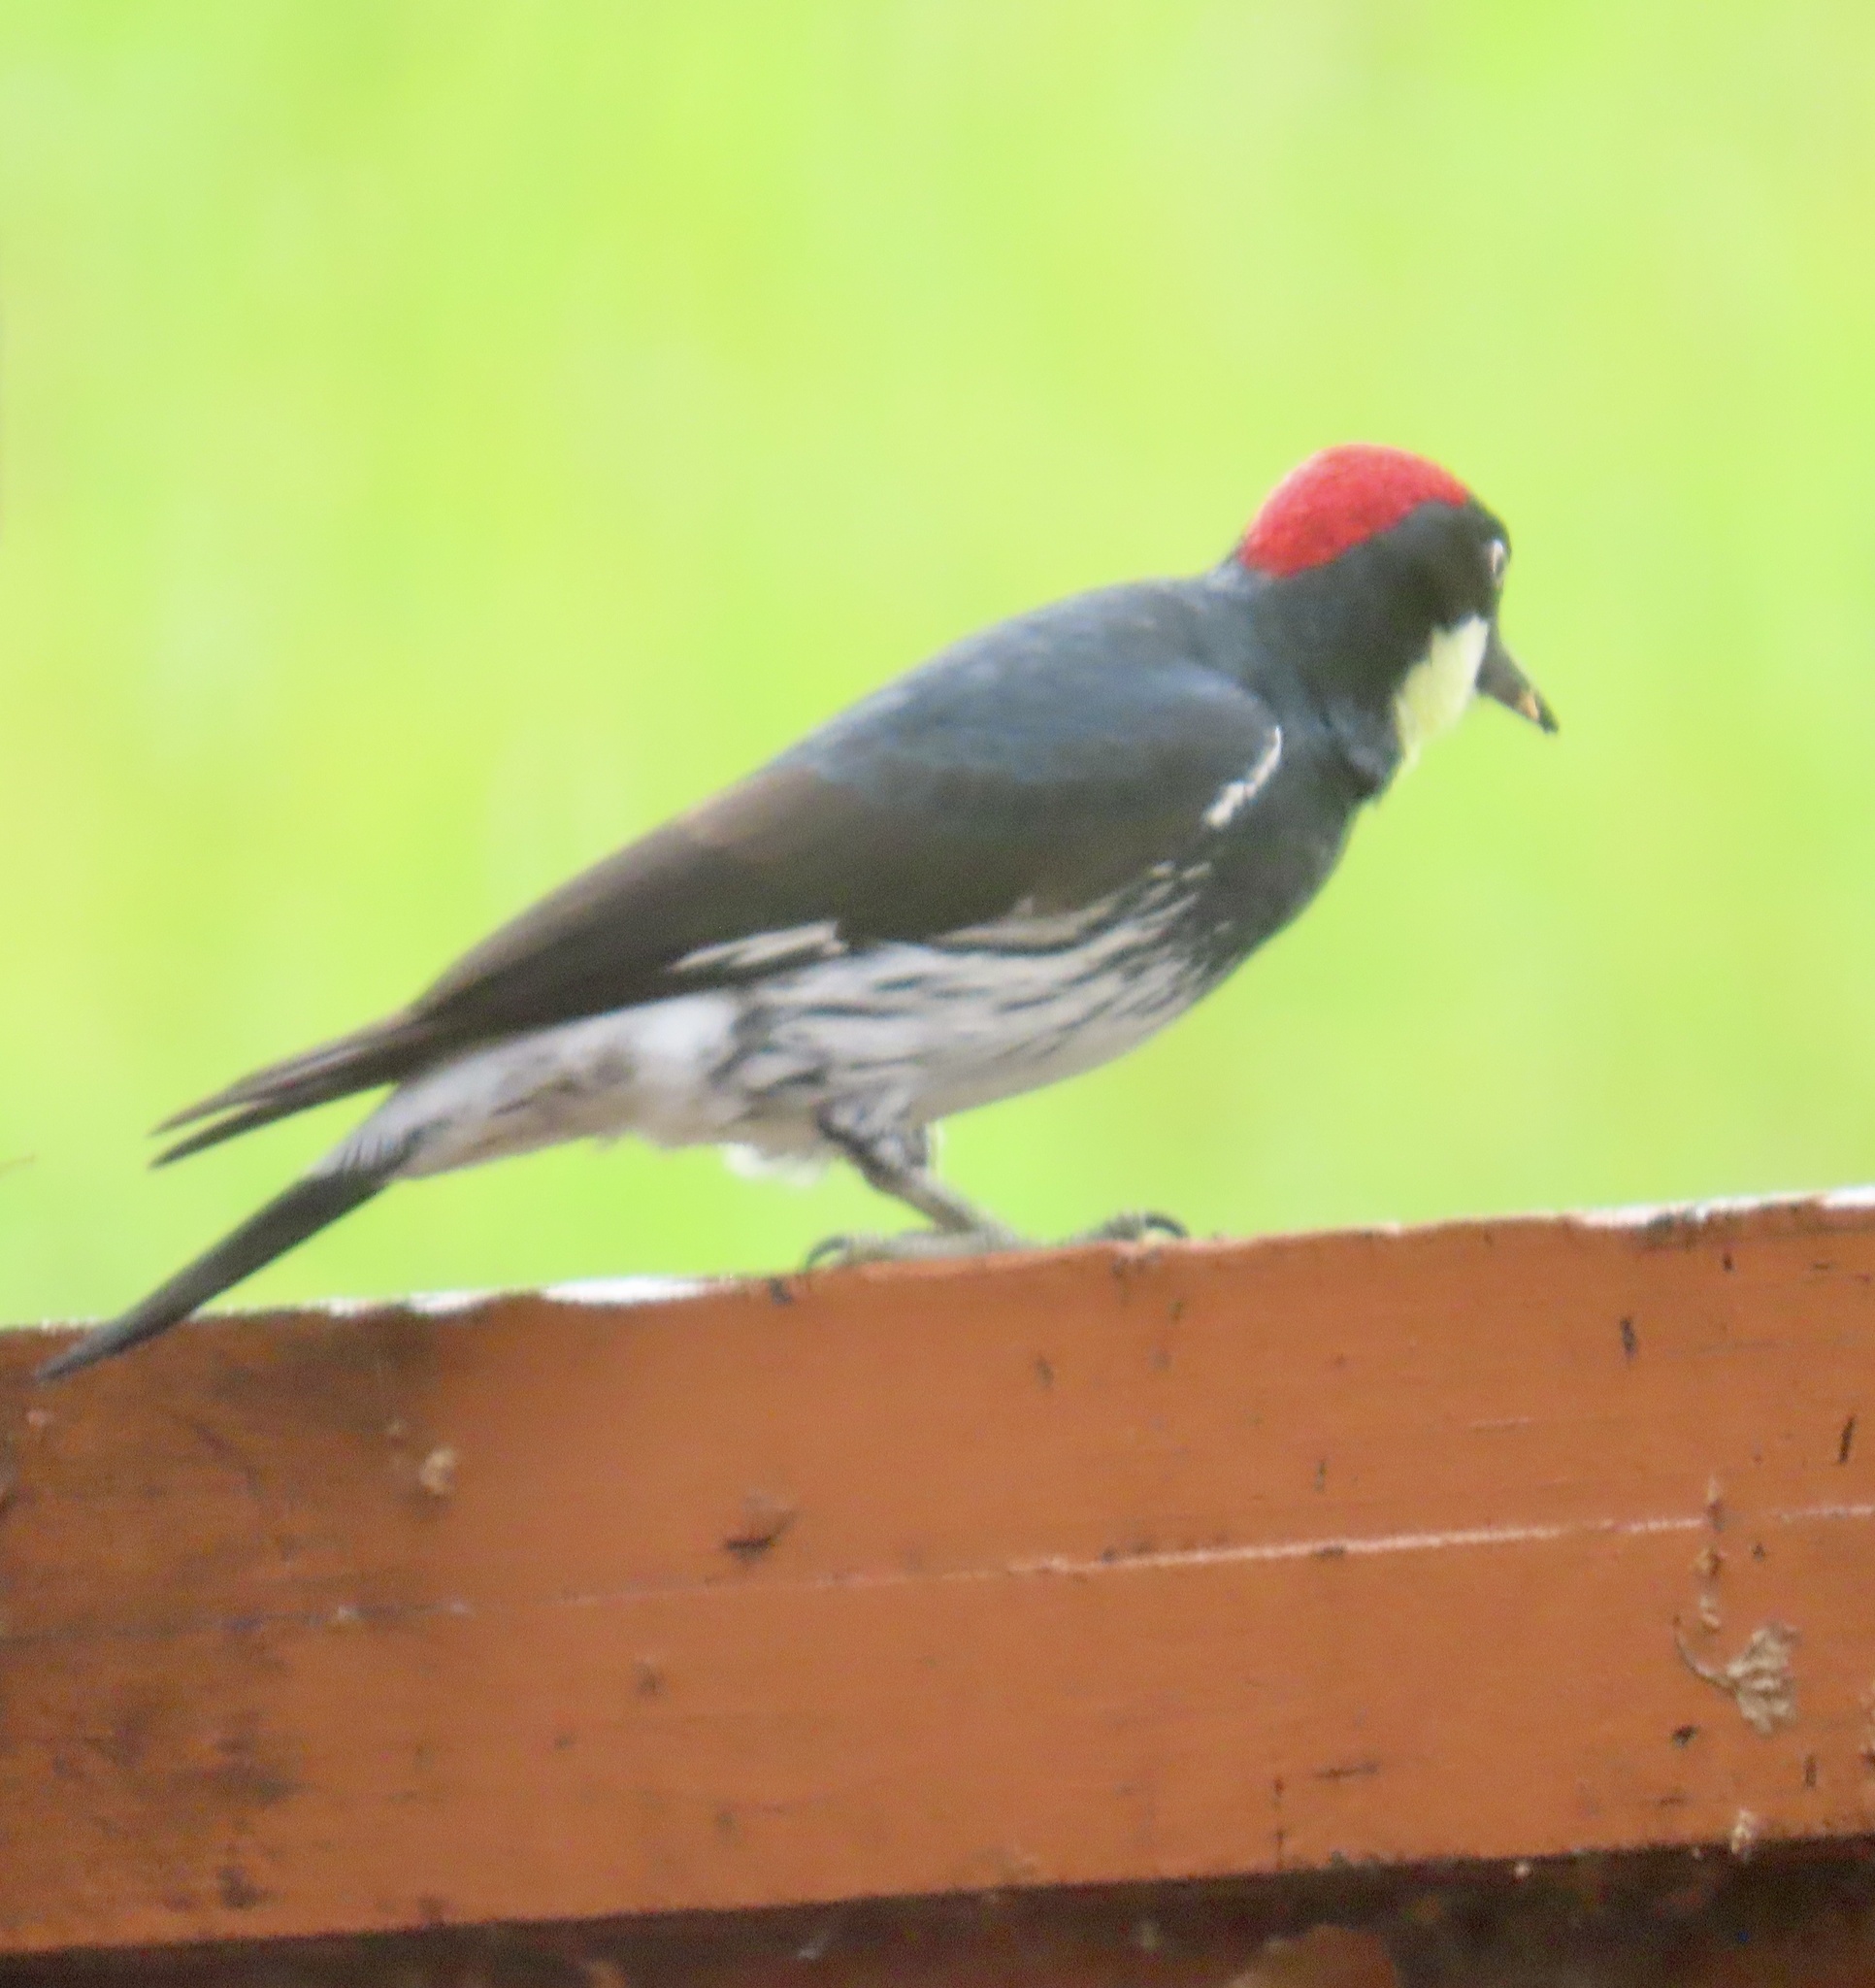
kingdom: Animalia
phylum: Chordata
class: Aves
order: Piciformes
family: Picidae
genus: Melanerpes
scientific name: Melanerpes formicivorus
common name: Acorn woodpecker
